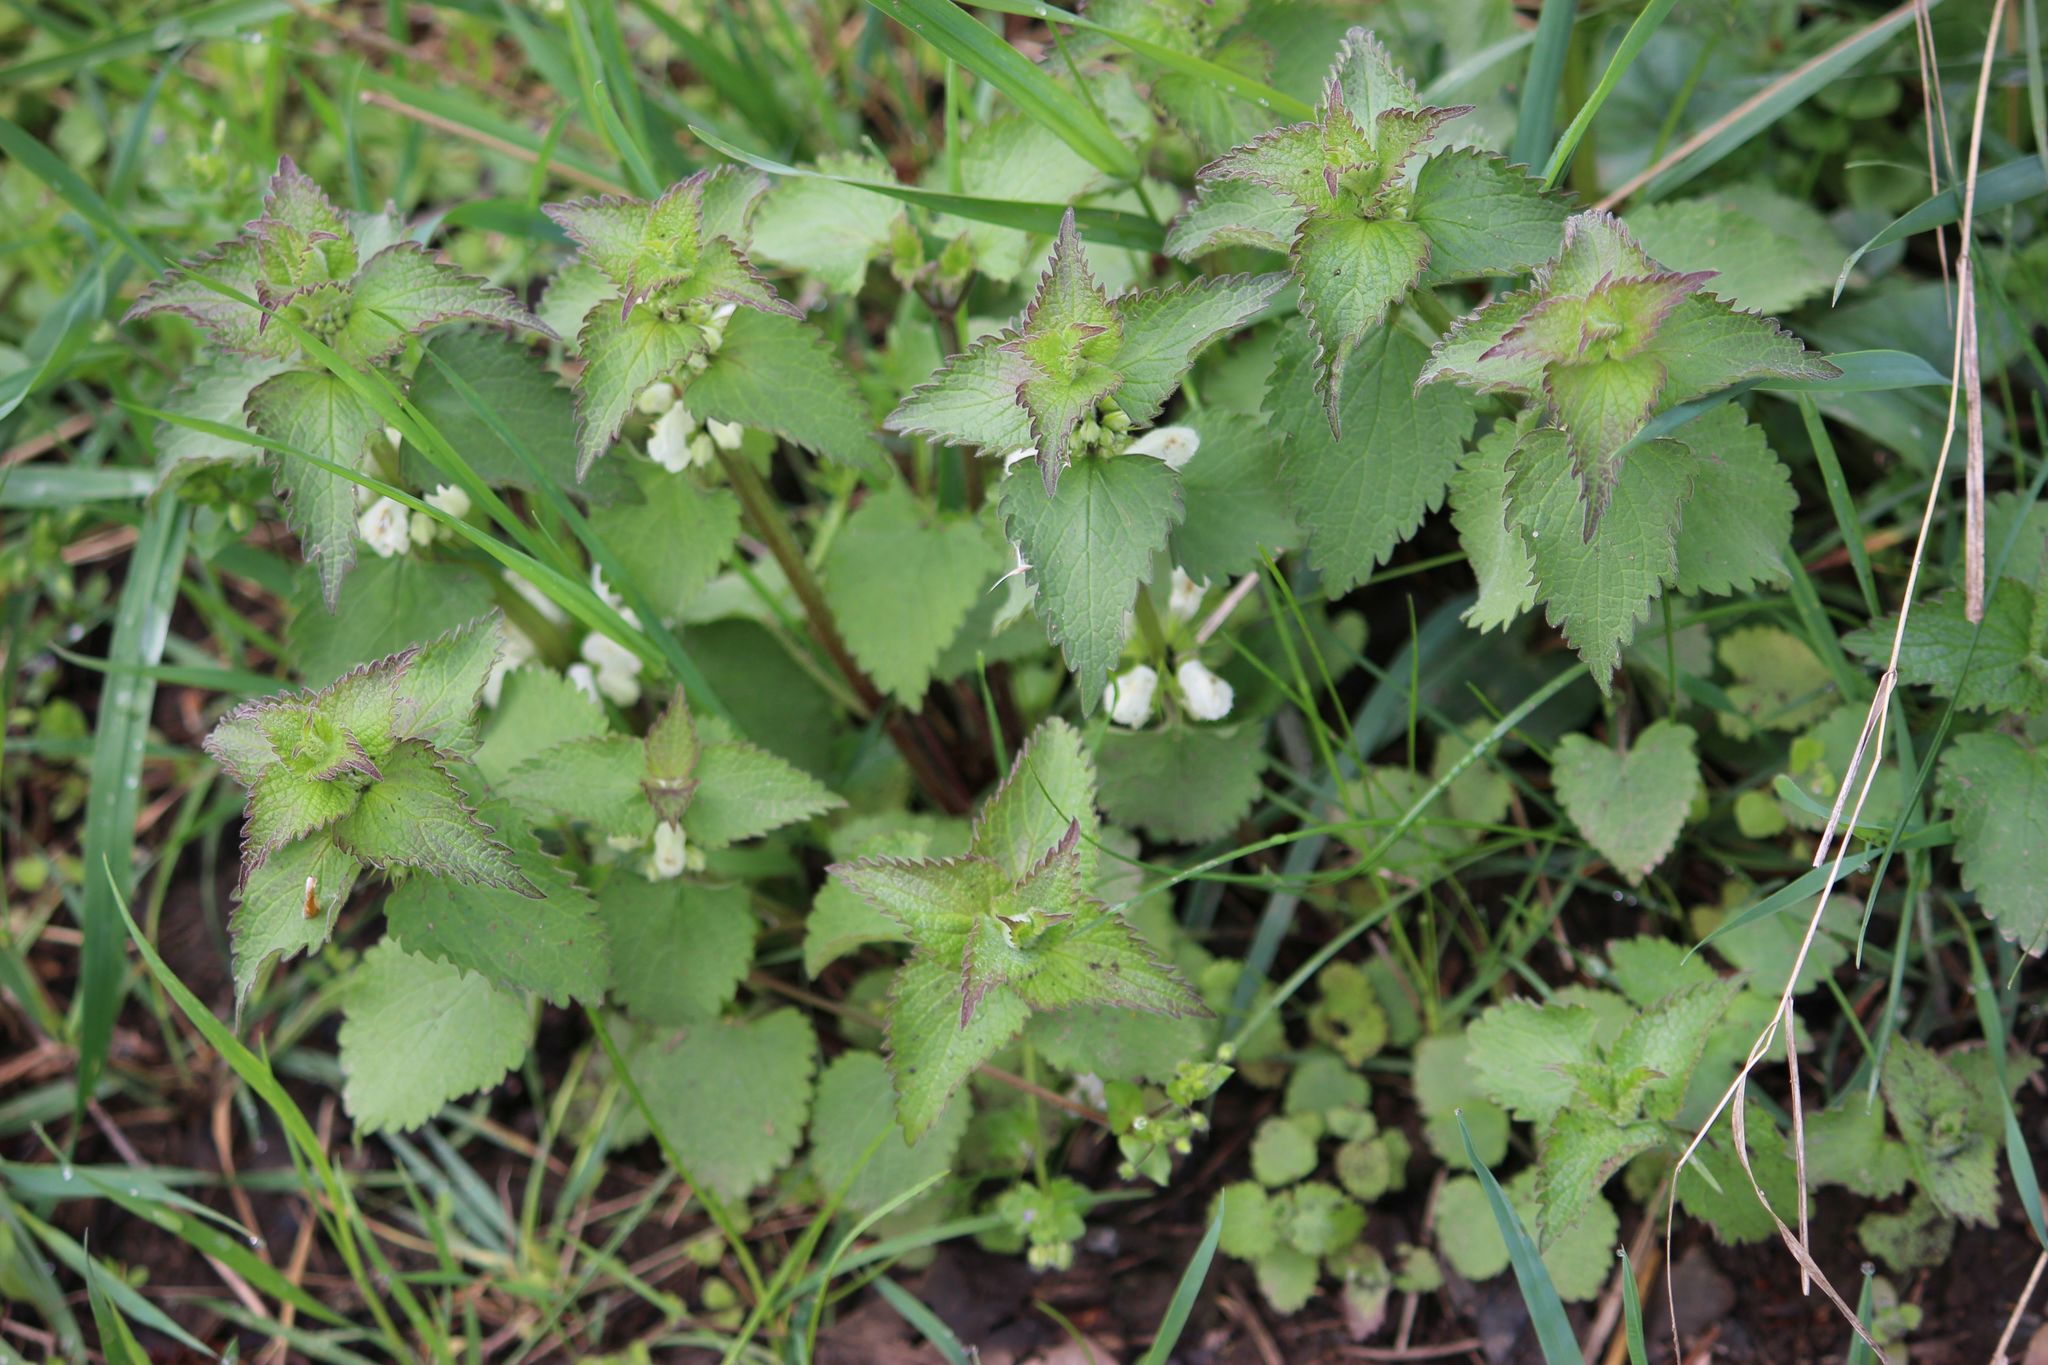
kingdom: Plantae
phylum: Tracheophyta
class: Magnoliopsida
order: Lamiales
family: Lamiaceae
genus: Lamium
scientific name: Lamium album
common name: White dead-nettle
